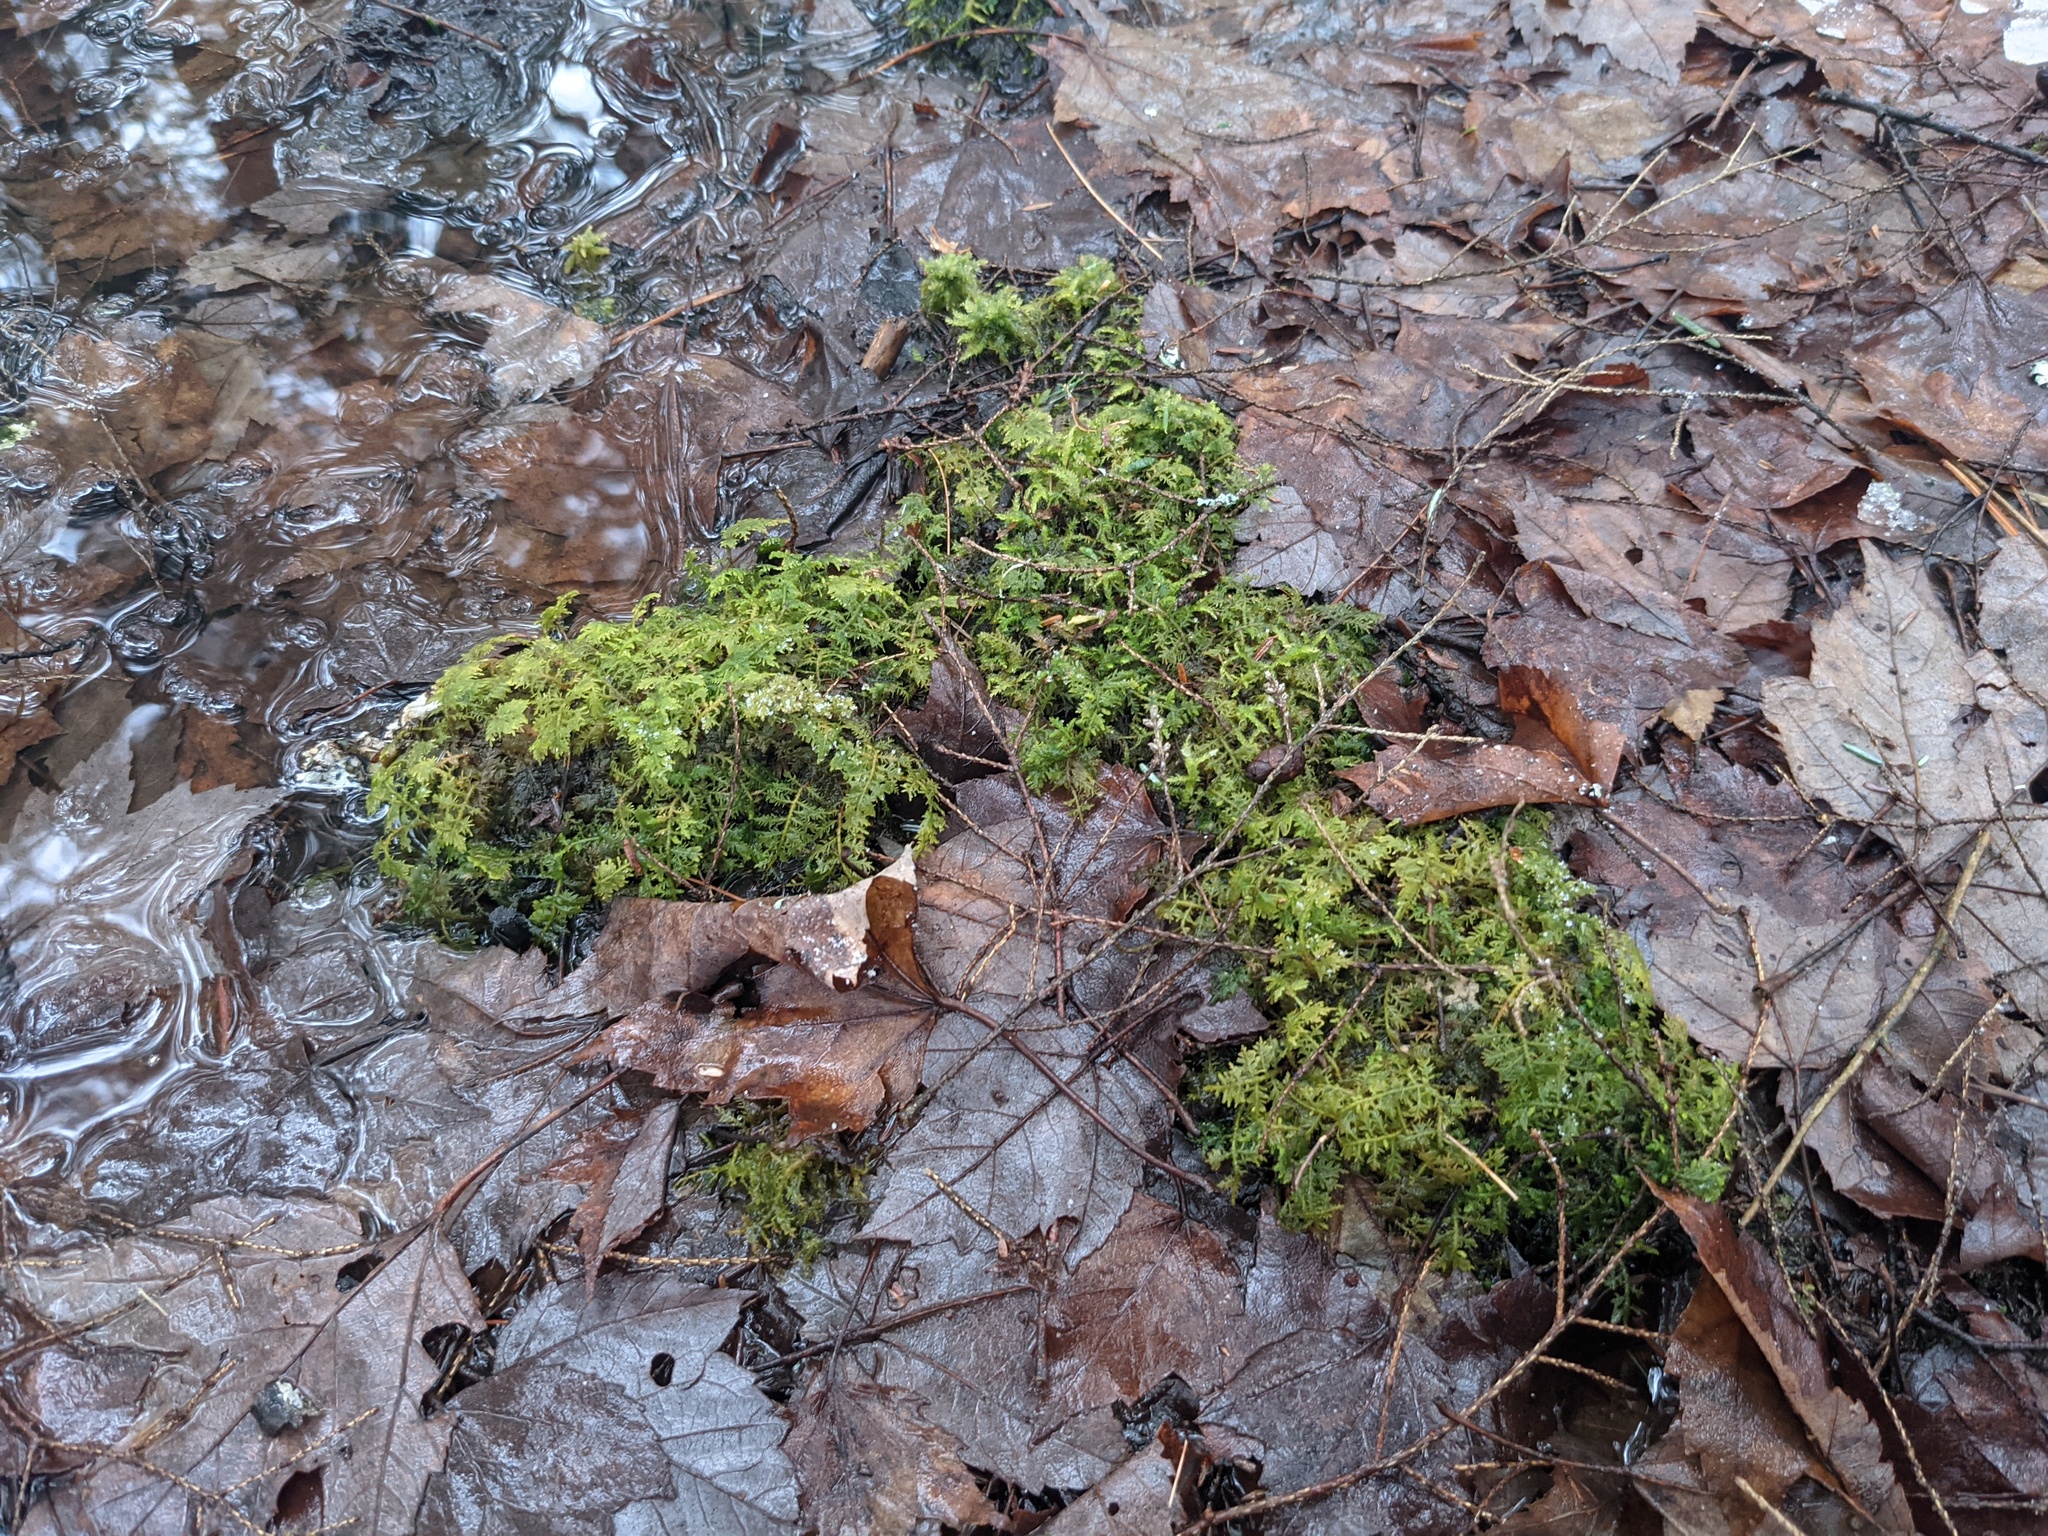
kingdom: Plantae
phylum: Bryophyta
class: Bryopsida
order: Hypnales
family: Thuidiaceae
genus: Thuidium
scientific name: Thuidium delicatulum
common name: Delicate fern moss
